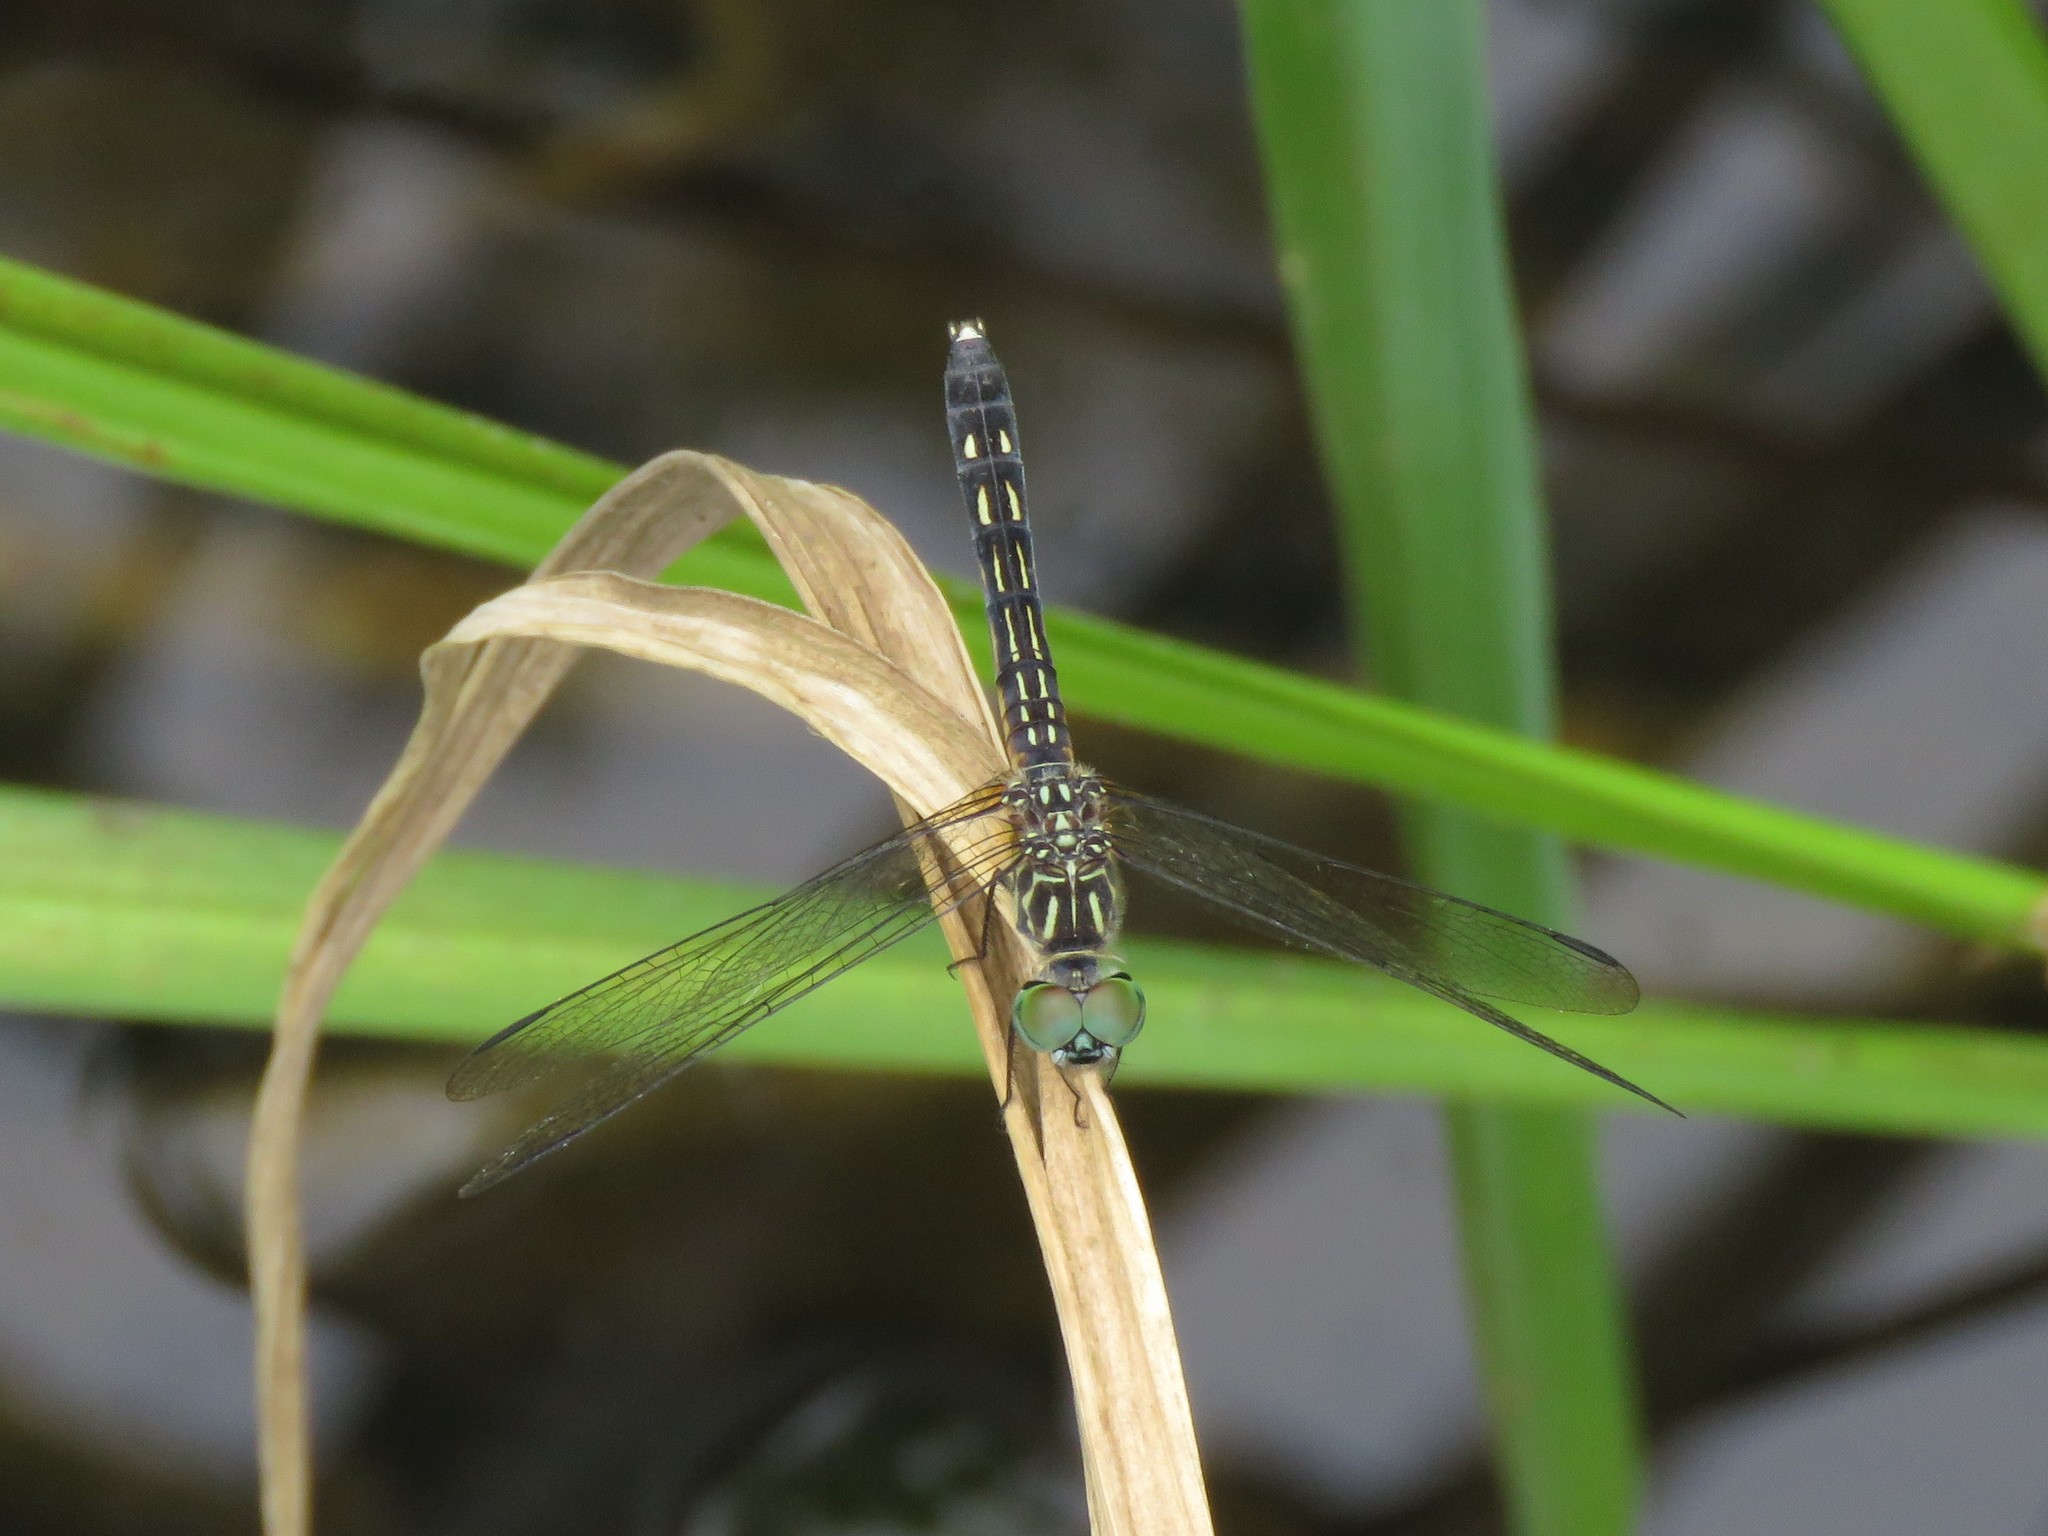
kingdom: Animalia
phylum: Arthropoda
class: Insecta
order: Odonata
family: Libellulidae
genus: Pachydiplax
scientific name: Pachydiplax longipennis
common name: Blue dasher
